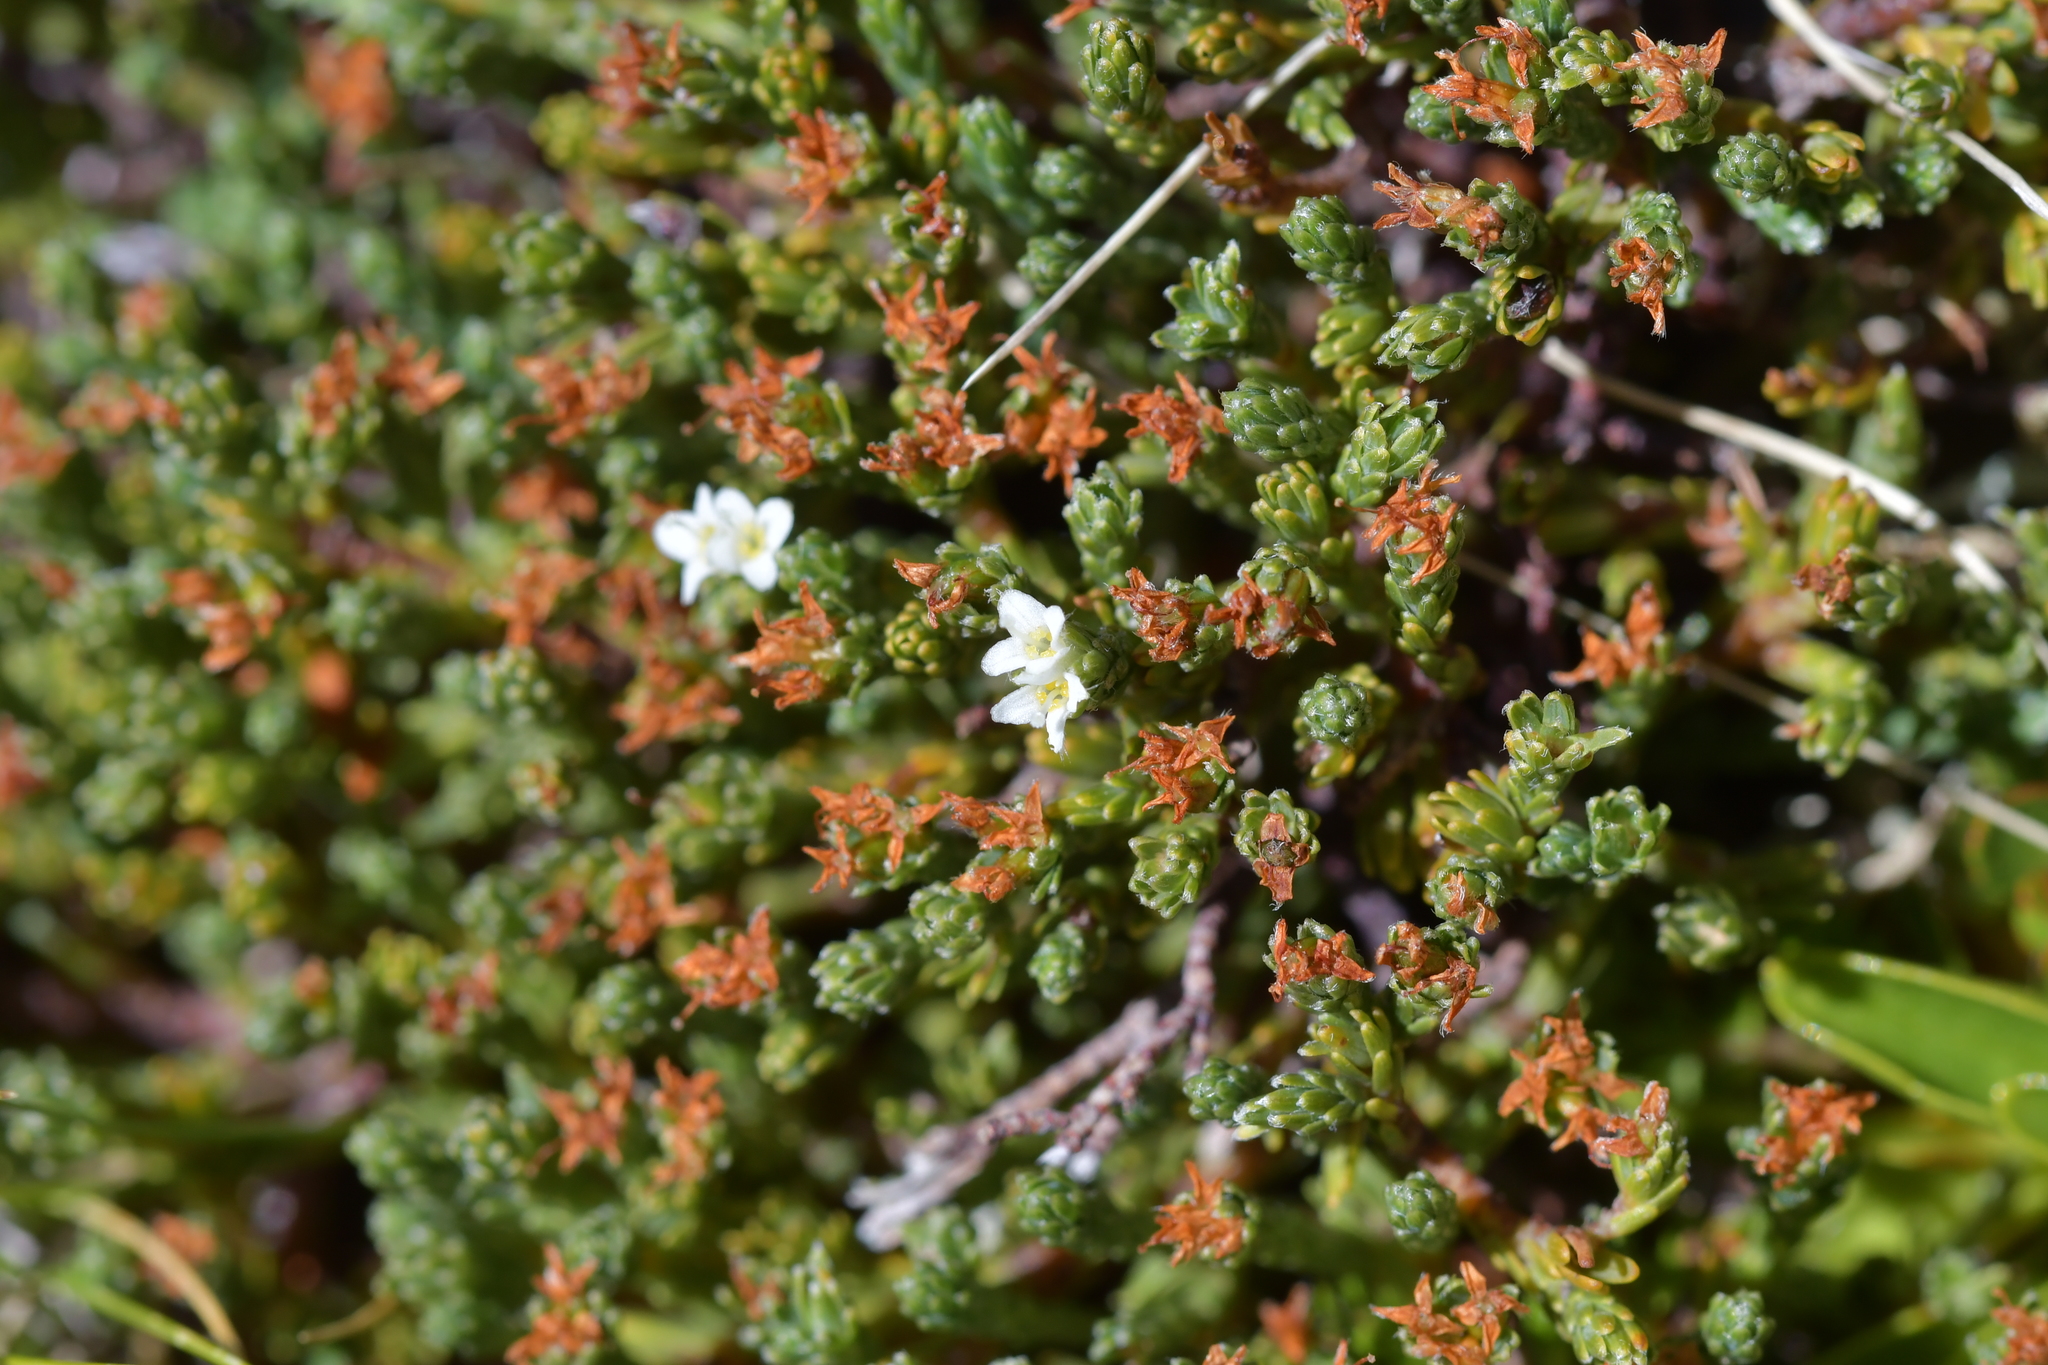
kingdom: Plantae
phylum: Tracheophyta
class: Magnoliopsida
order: Malvales
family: Thymelaeaceae
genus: Kelleria
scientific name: Kelleria dieffenbachii
